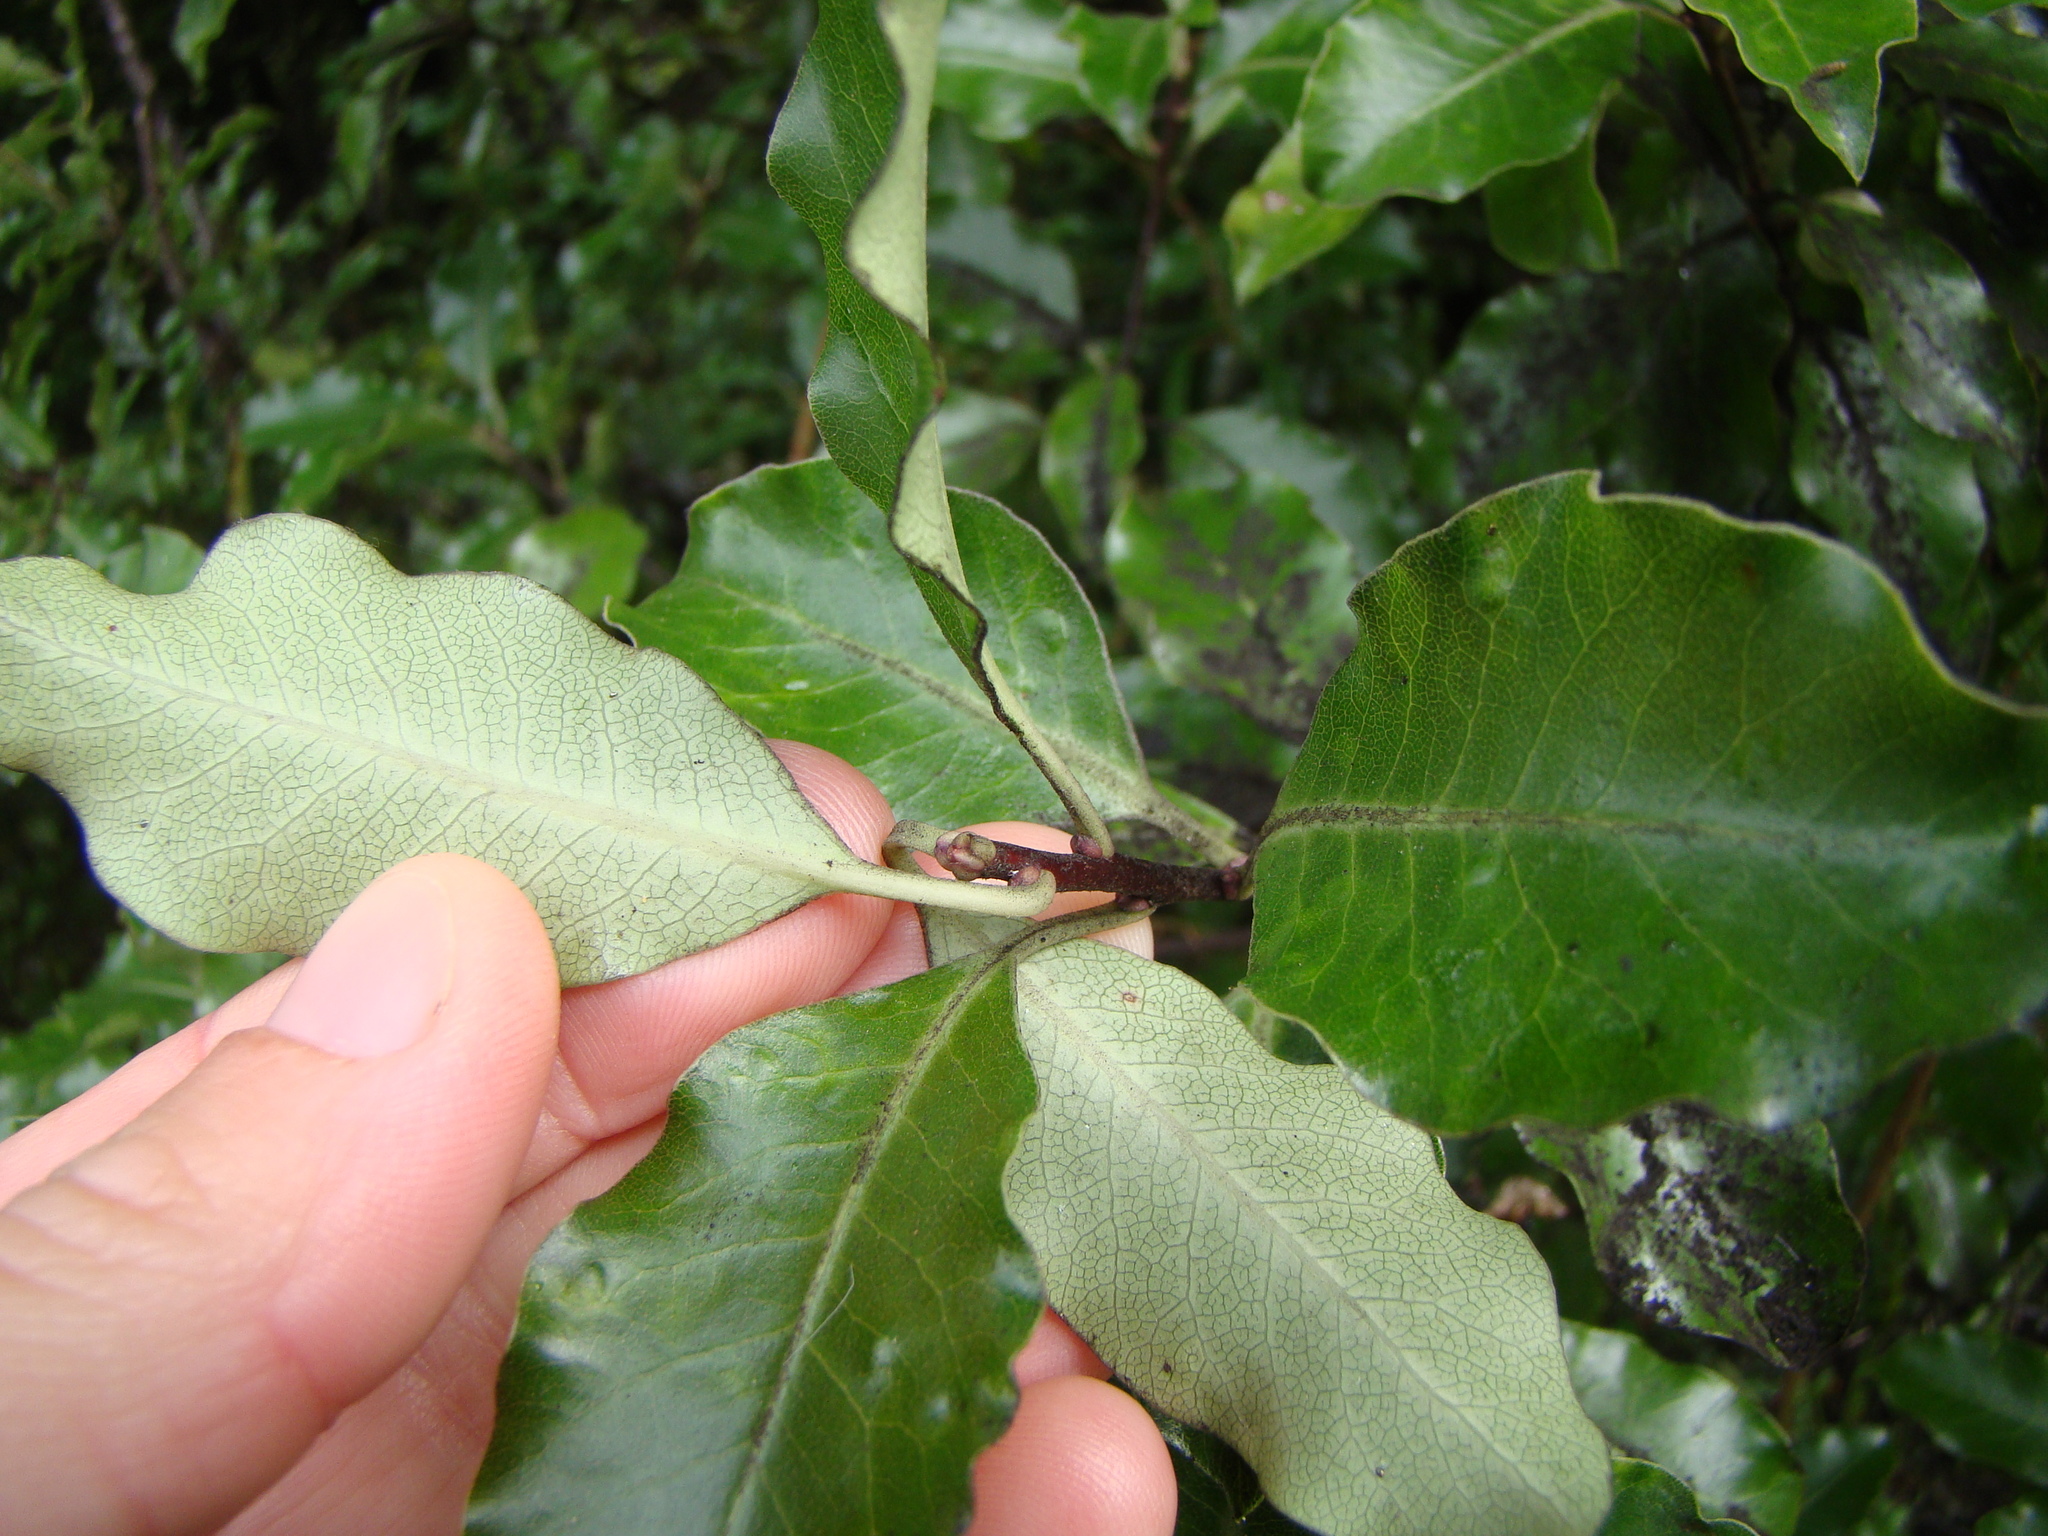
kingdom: Plantae
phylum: Tracheophyta
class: Magnoliopsida
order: Apiales
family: Pittosporaceae
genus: Pittosporum
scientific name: Pittosporum tenuifolium
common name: Kohuhu
